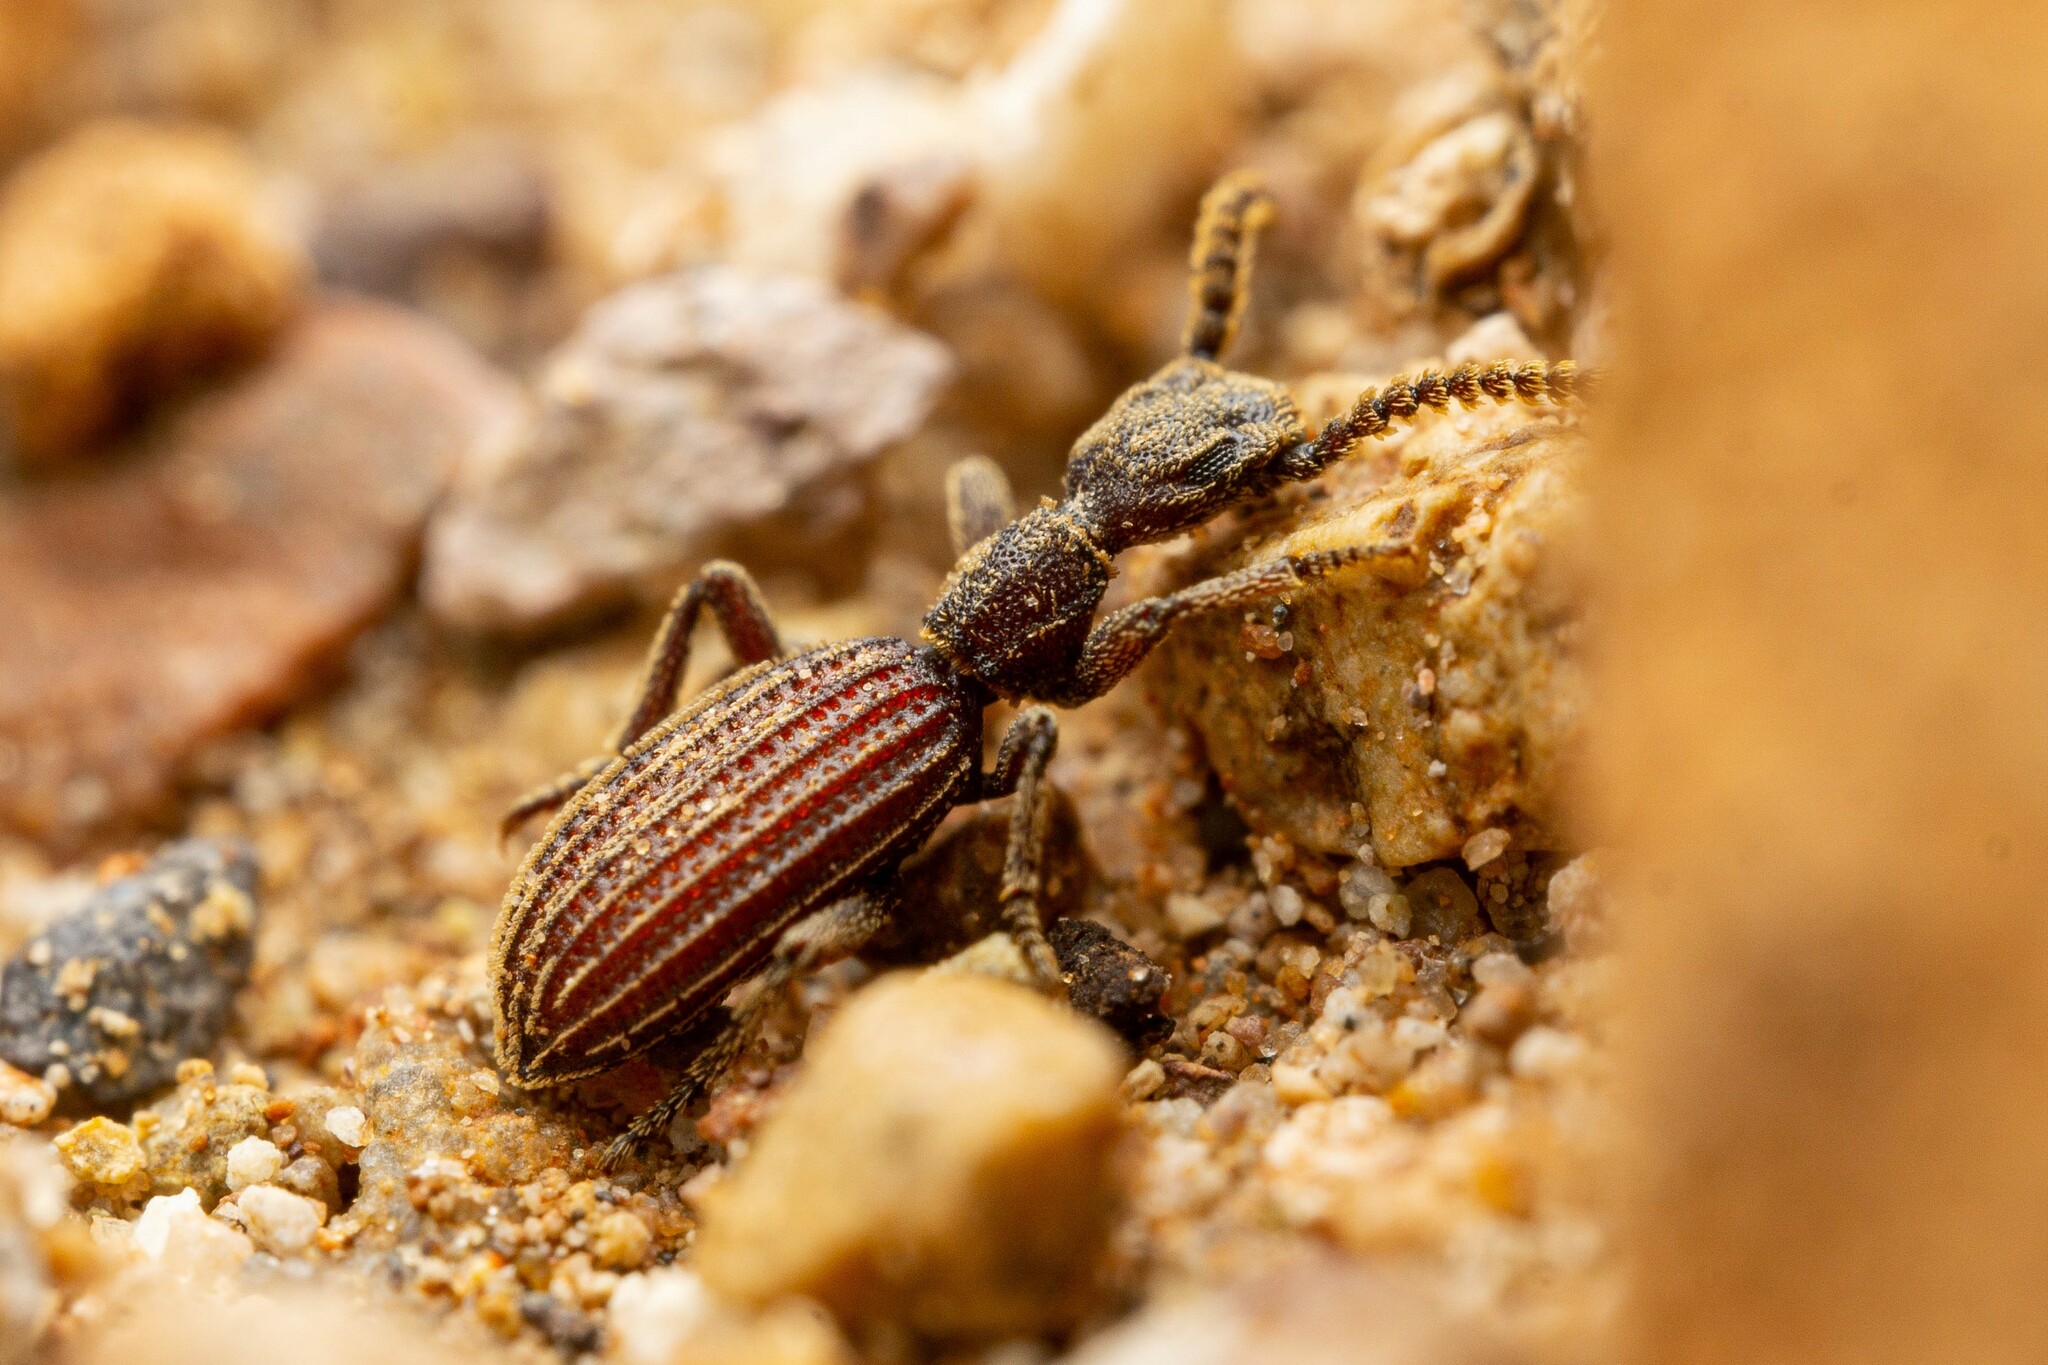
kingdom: Animalia
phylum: Arthropoda
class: Insecta
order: Coleoptera
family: Tenebrionidae
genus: Araeoschizus
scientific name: Araeoschizus
